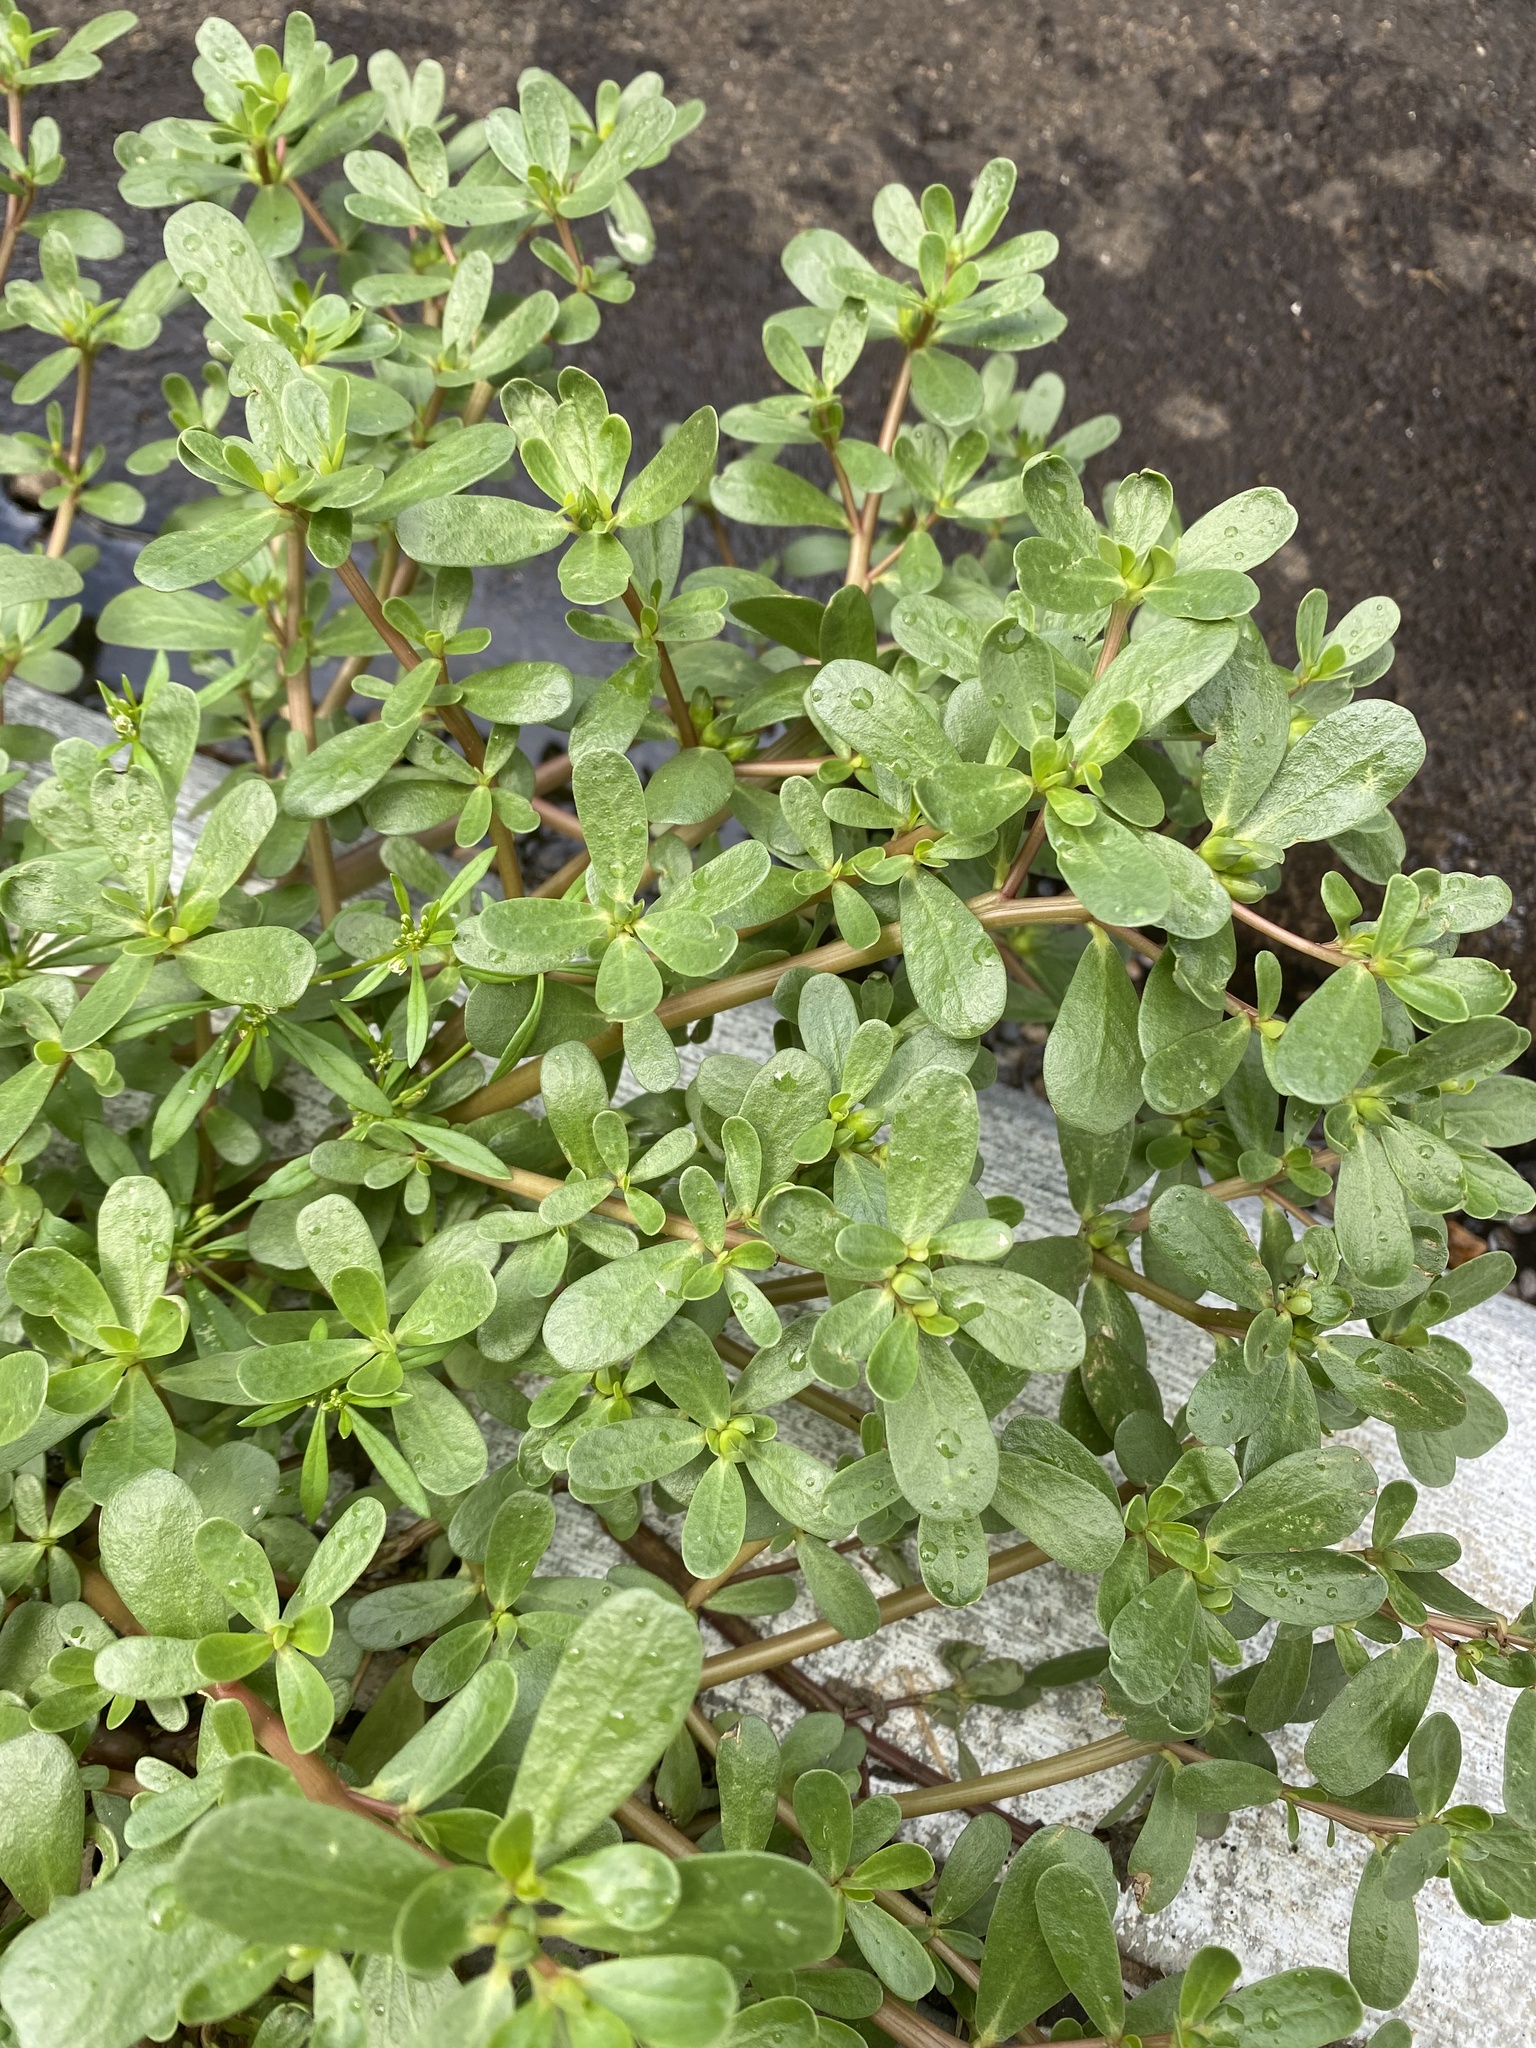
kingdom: Plantae
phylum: Tracheophyta
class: Magnoliopsida
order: Caryophyllales
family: Portulacaceae
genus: Portulaca
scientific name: Portulaca oleracea
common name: Common purslane
